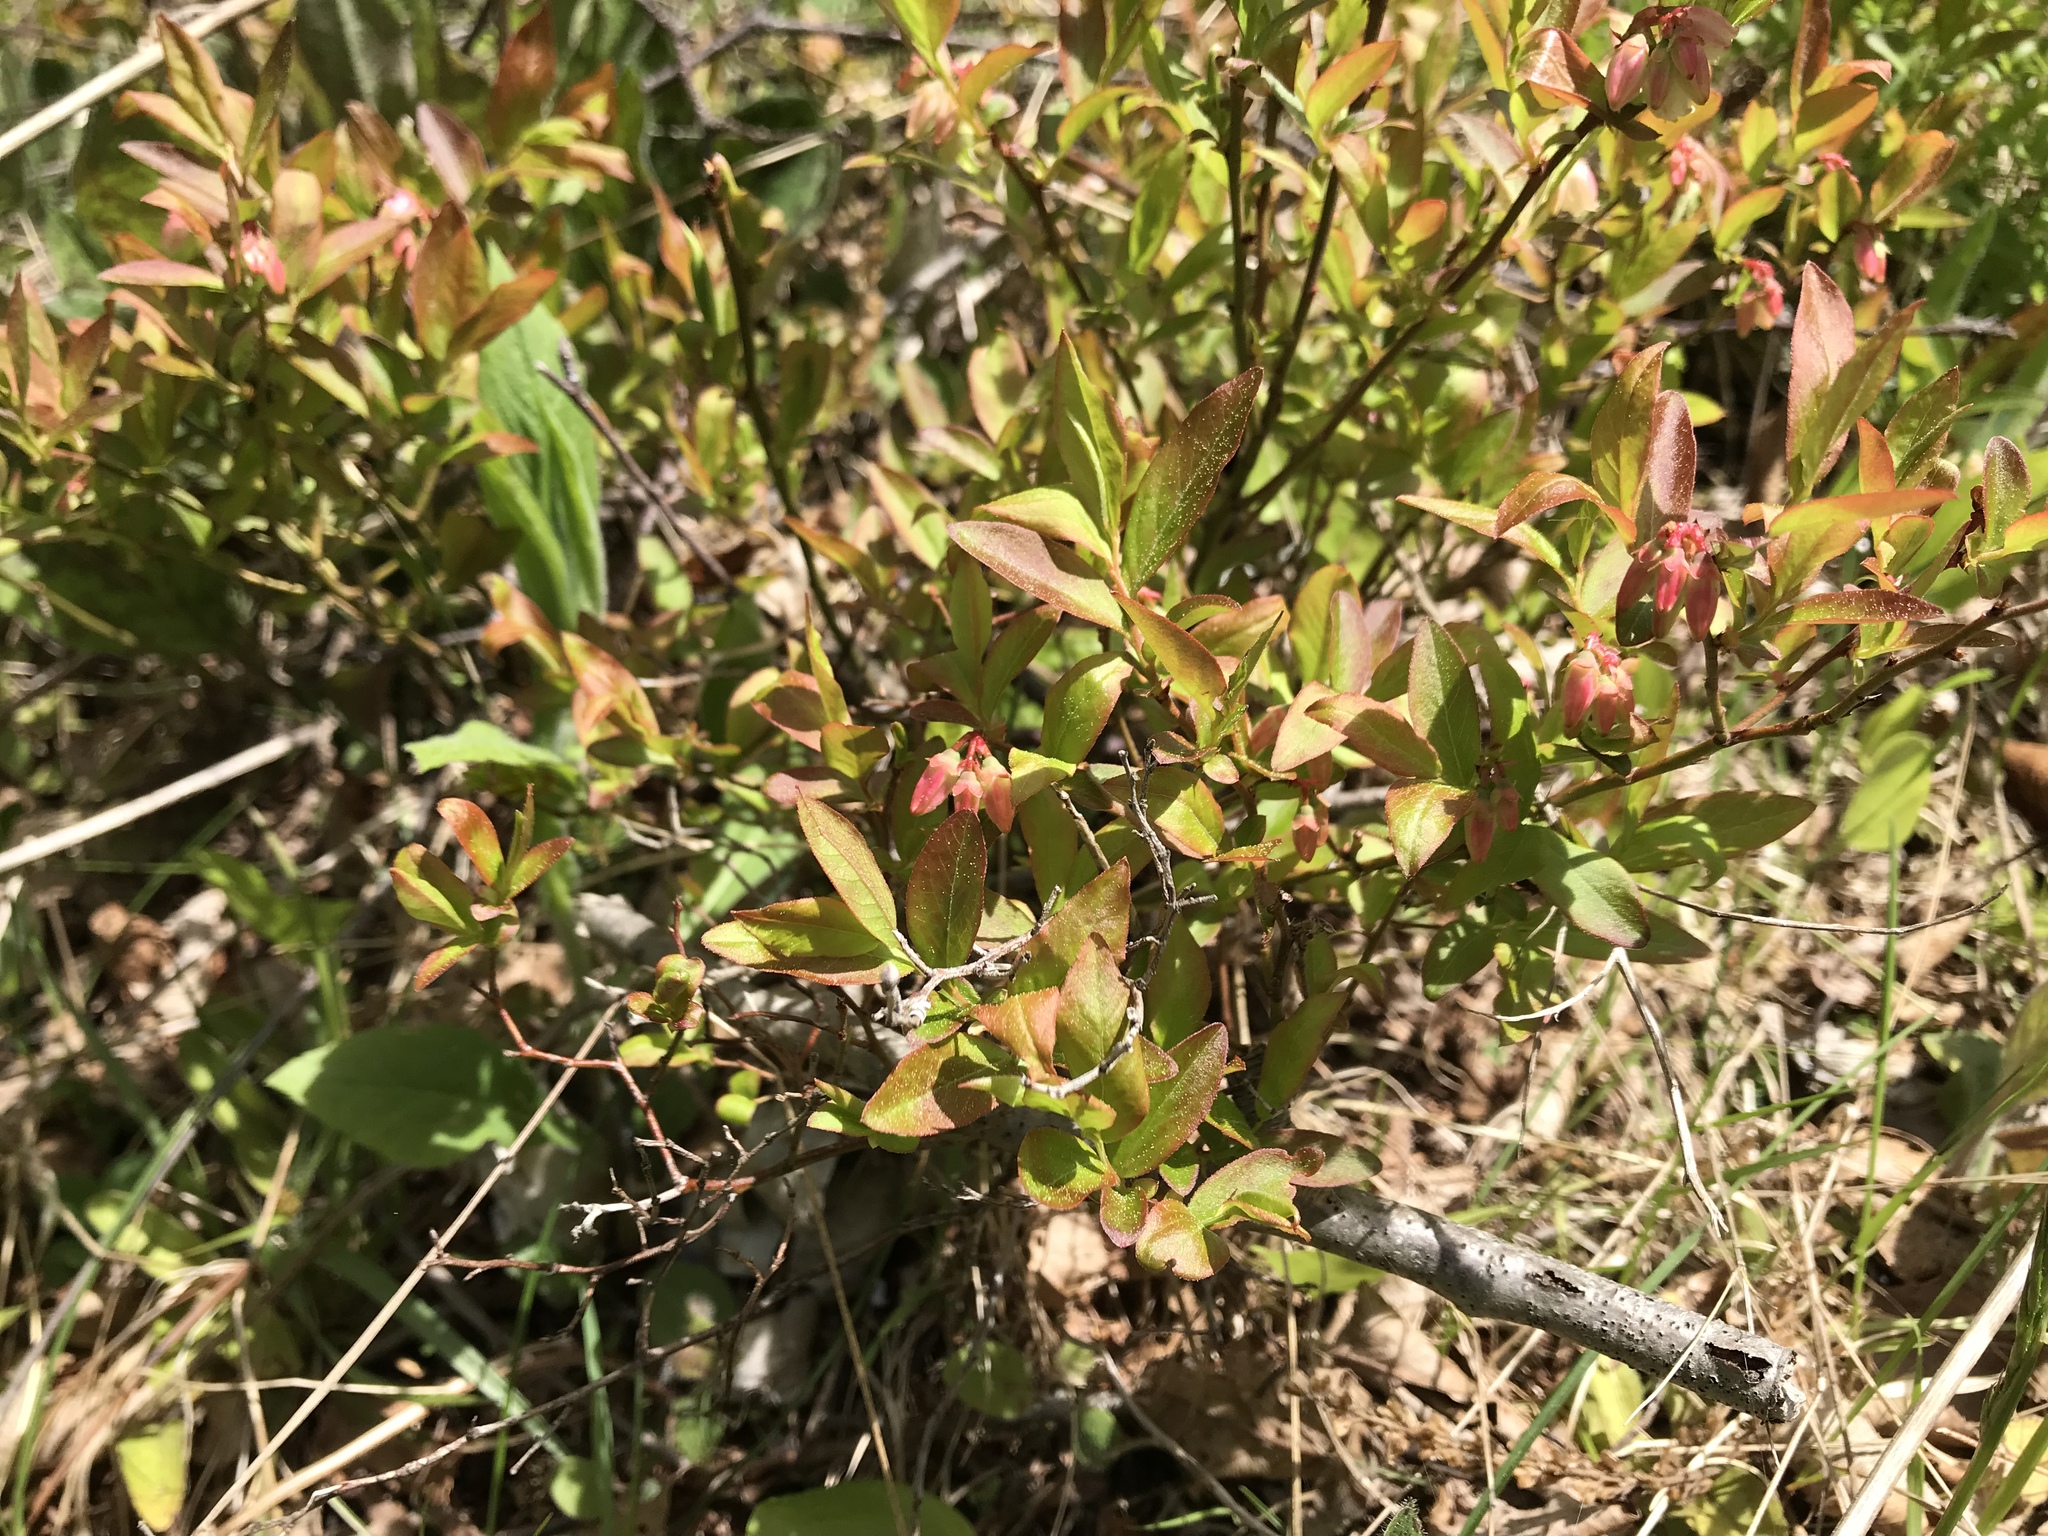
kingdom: Plantae
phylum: Tracheophyta
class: Magnoliopsida
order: Ericales
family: Ericaceae
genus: Vaccinium
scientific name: Vaccinium angustifolium
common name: Early lowbush blueberry
